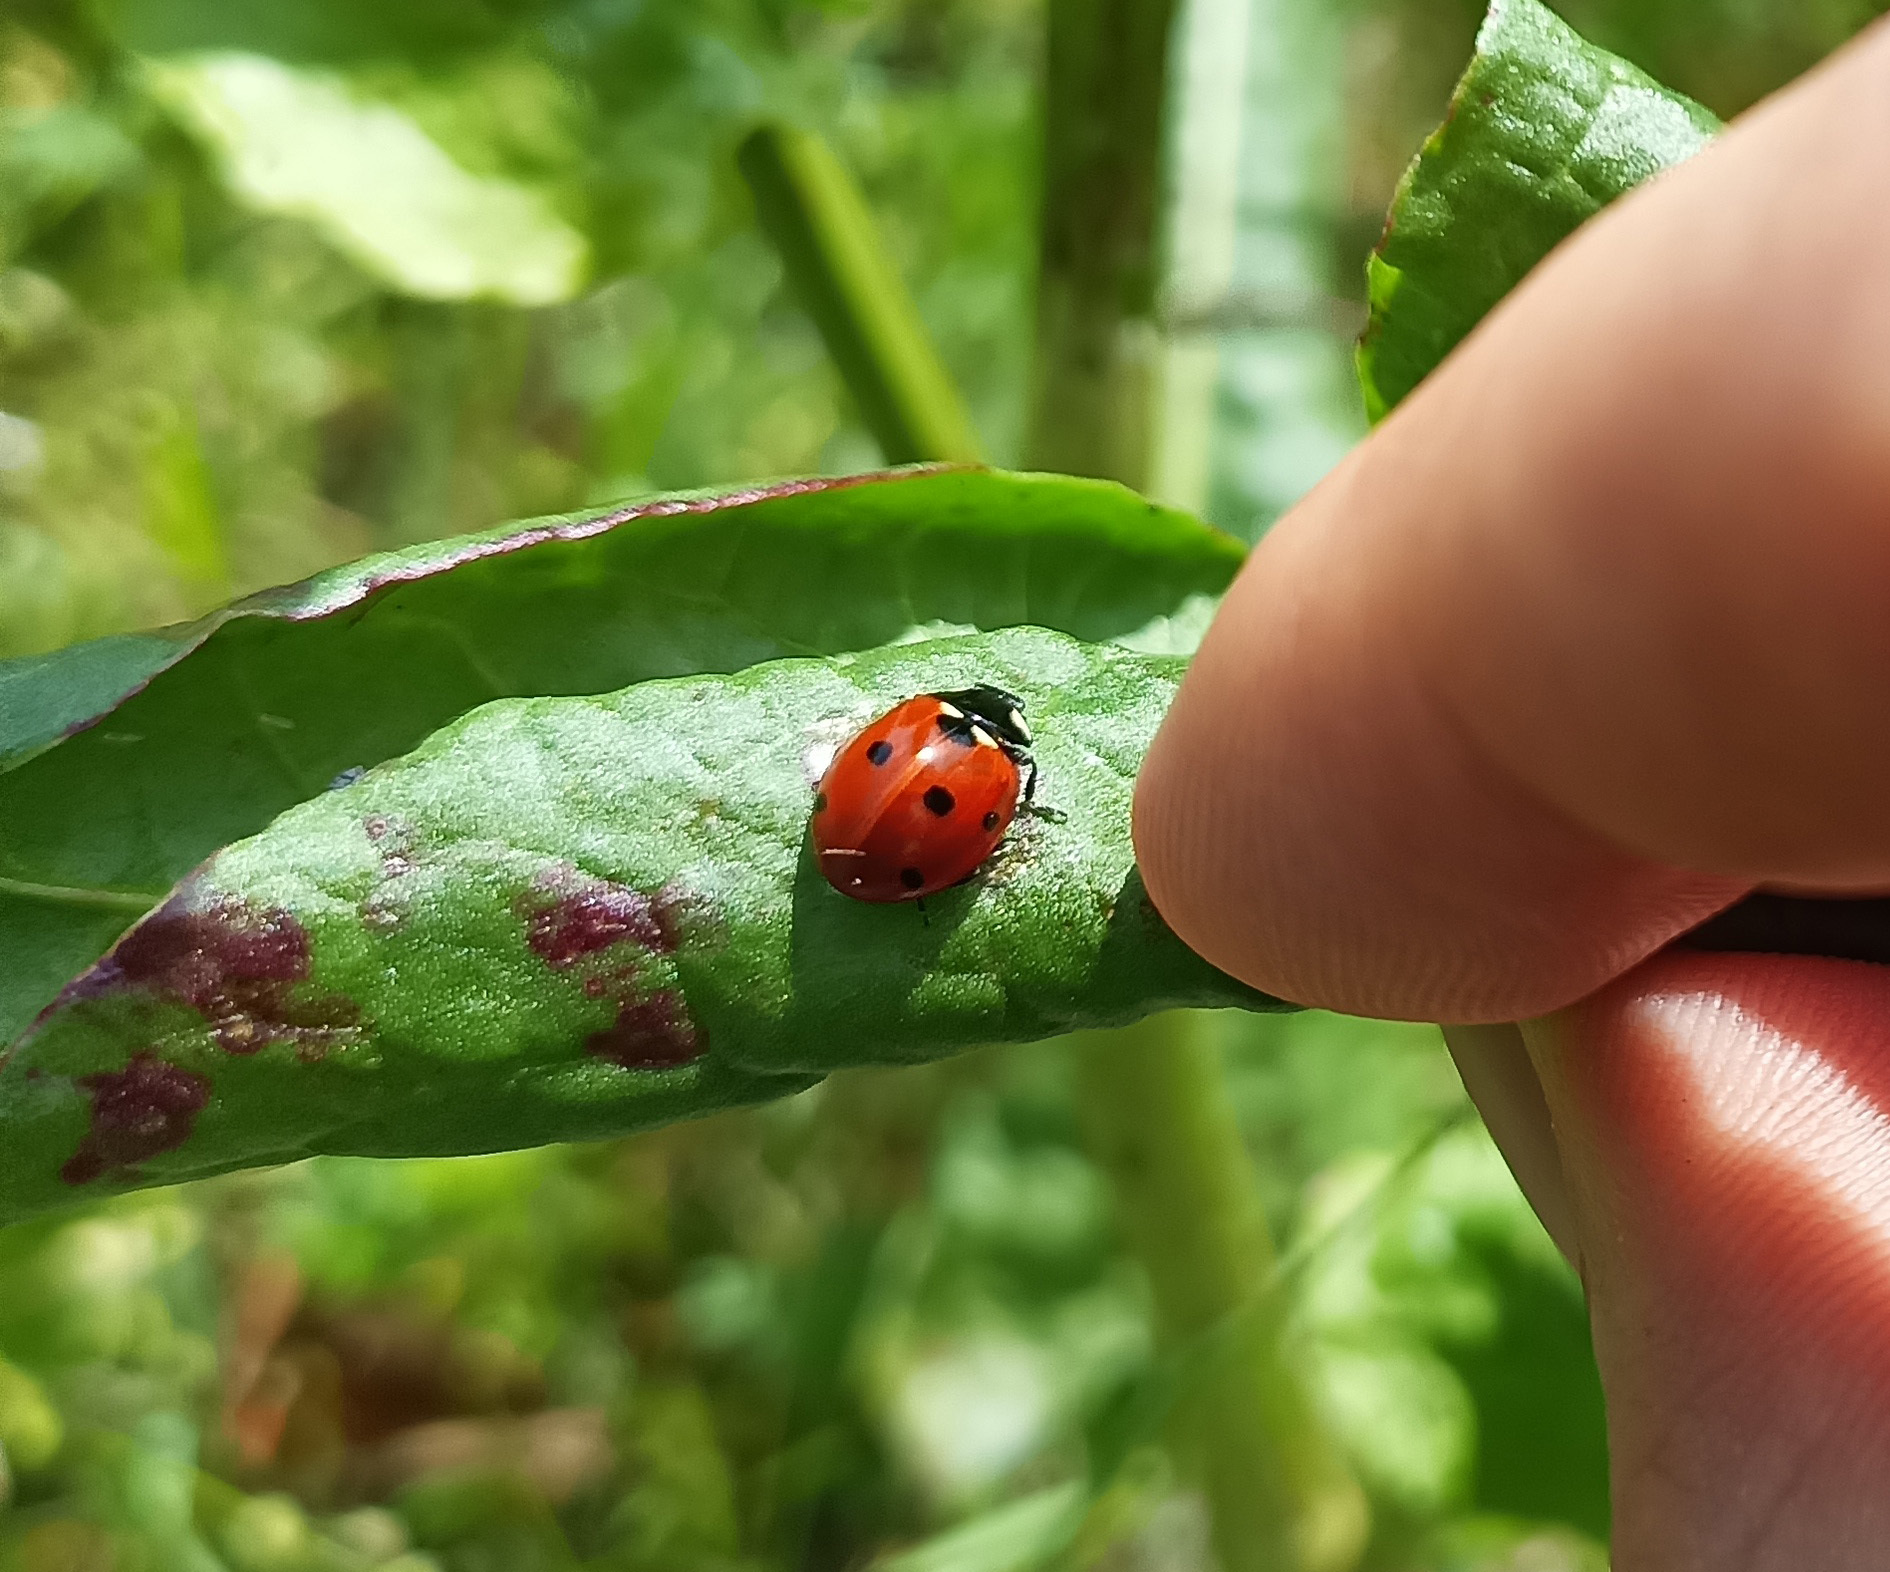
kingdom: Animalia
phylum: Arthropoda
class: Insecta
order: Coleoptera
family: Coccinellidae
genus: Coccinella
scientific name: Coccinella septempunctata
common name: Sevenspotted lady beetle
